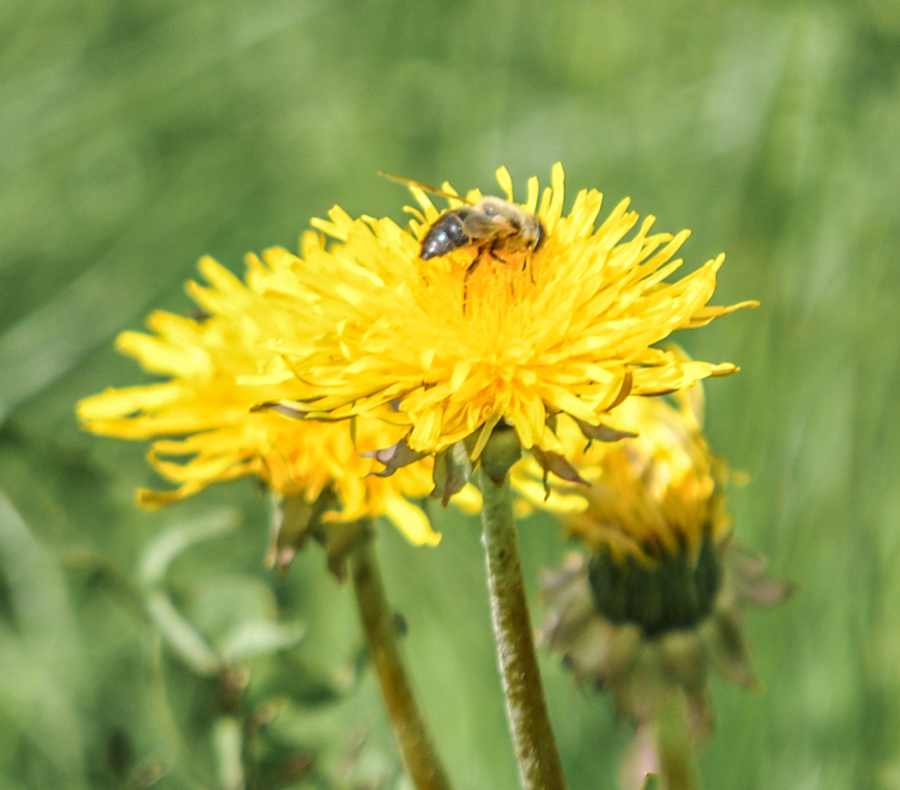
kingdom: Plantae
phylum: Tracheophyta
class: Magnoliopsida
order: Asterales
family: Asteraceae
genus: Taraxacum
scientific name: Taraxacum officinale
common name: Common dandelion
